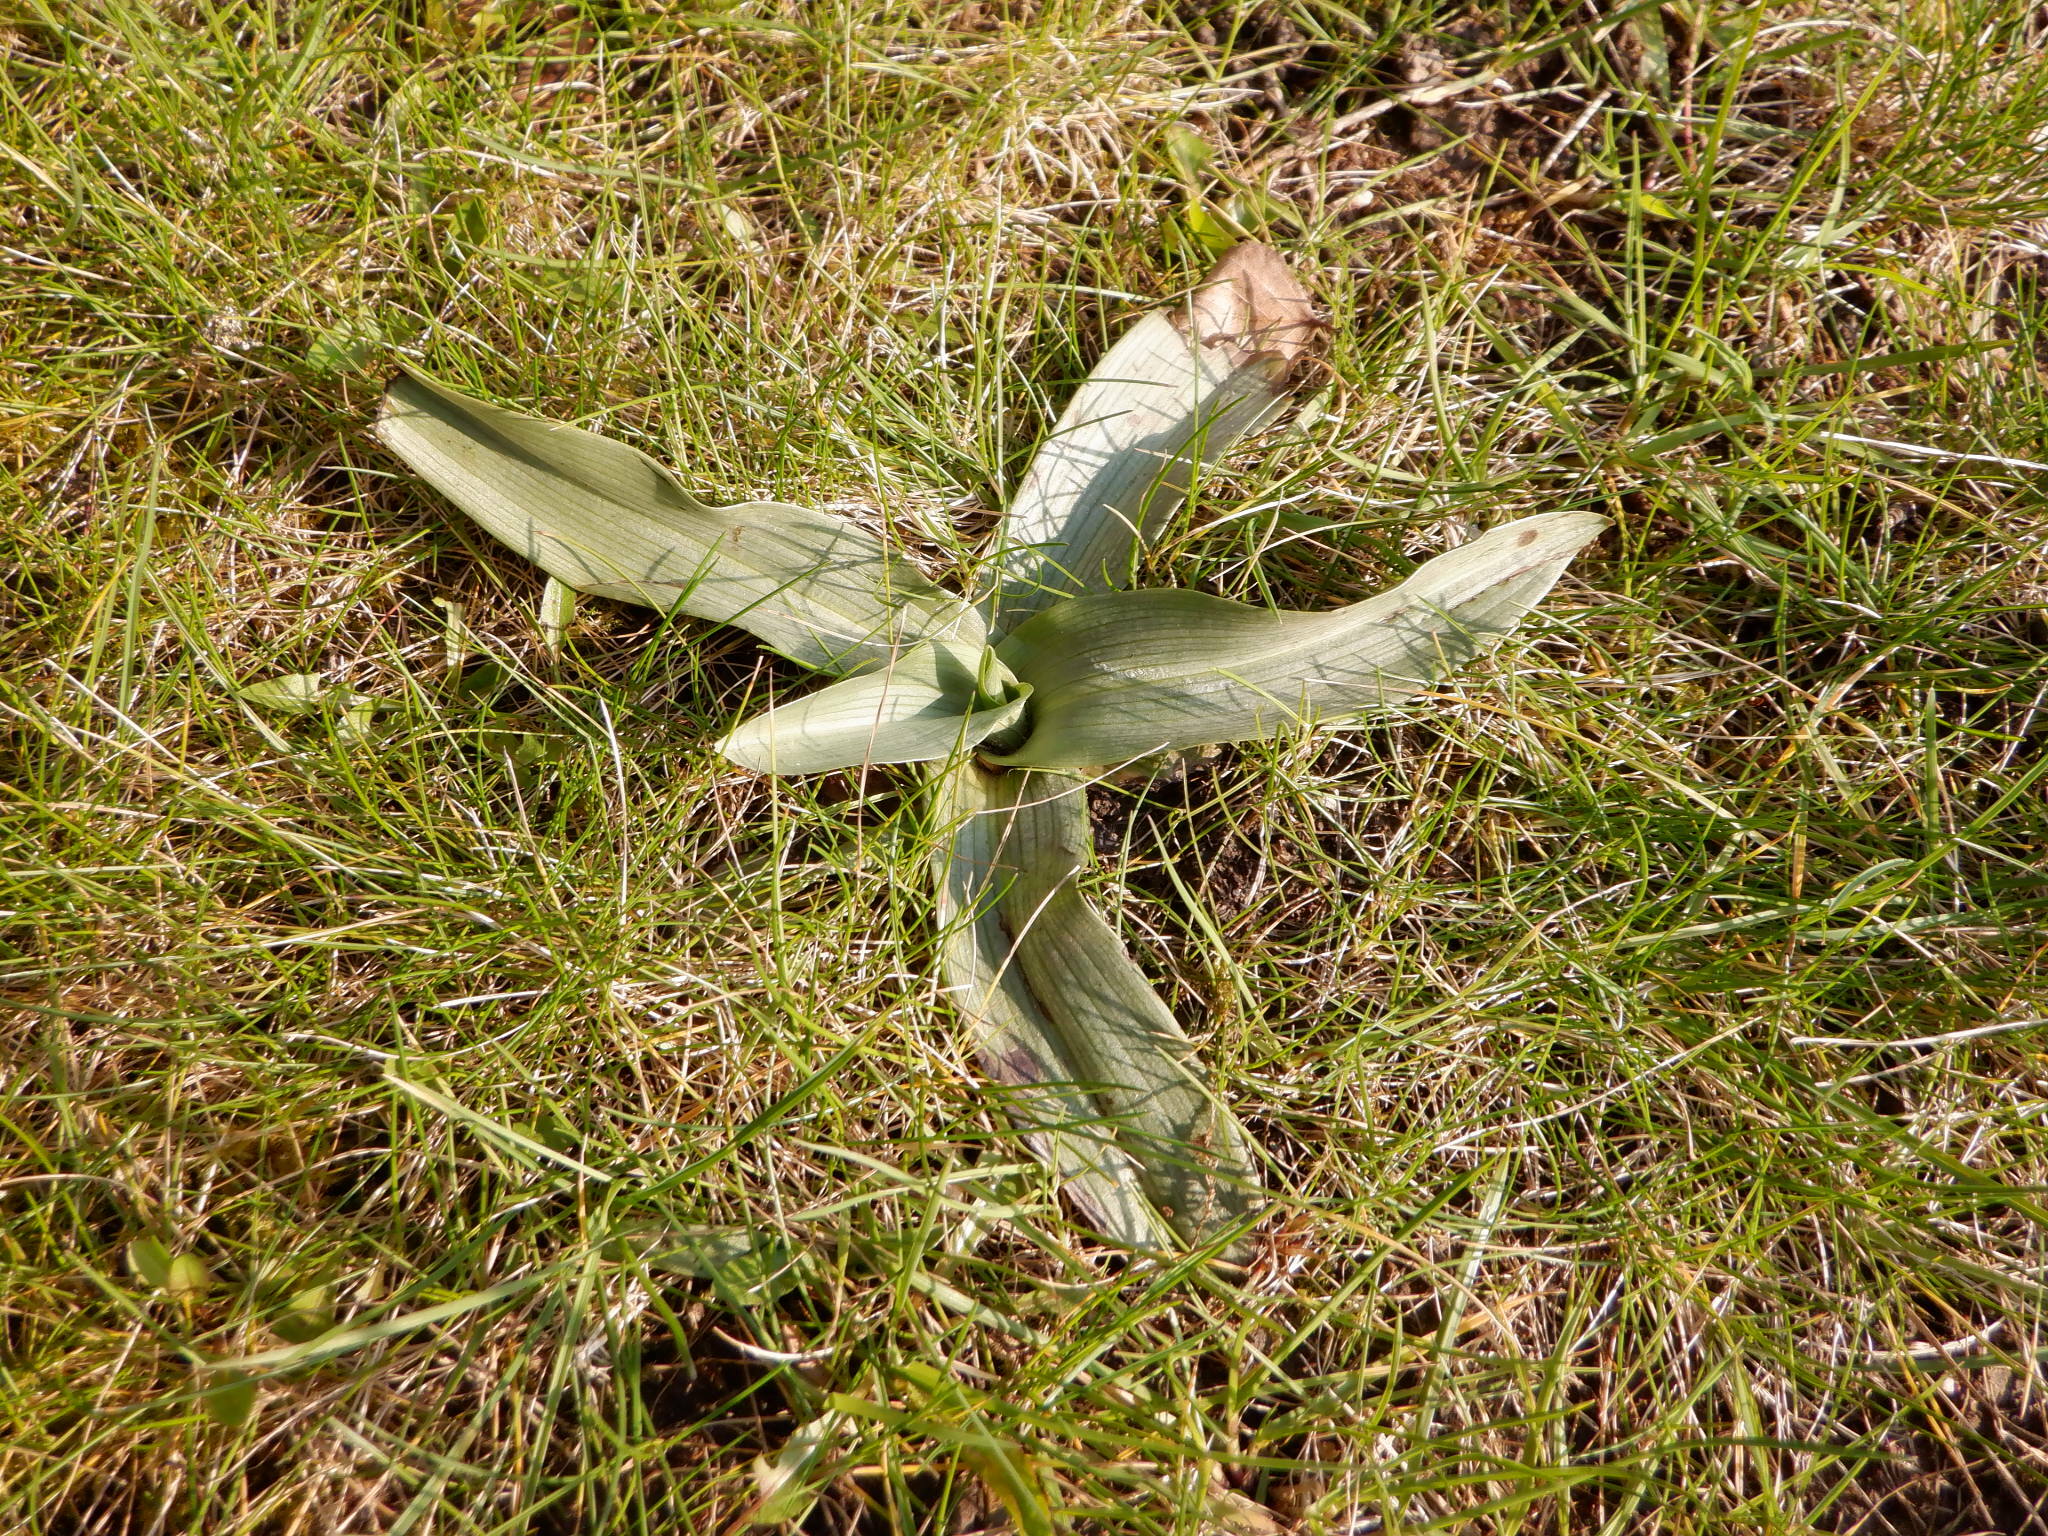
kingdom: Plantae
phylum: Tracheophyta
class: Liliopsida
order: Asparagales
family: Orchidaceae
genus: Ophrys
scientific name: Ophrys apifera
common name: Bee orchid
